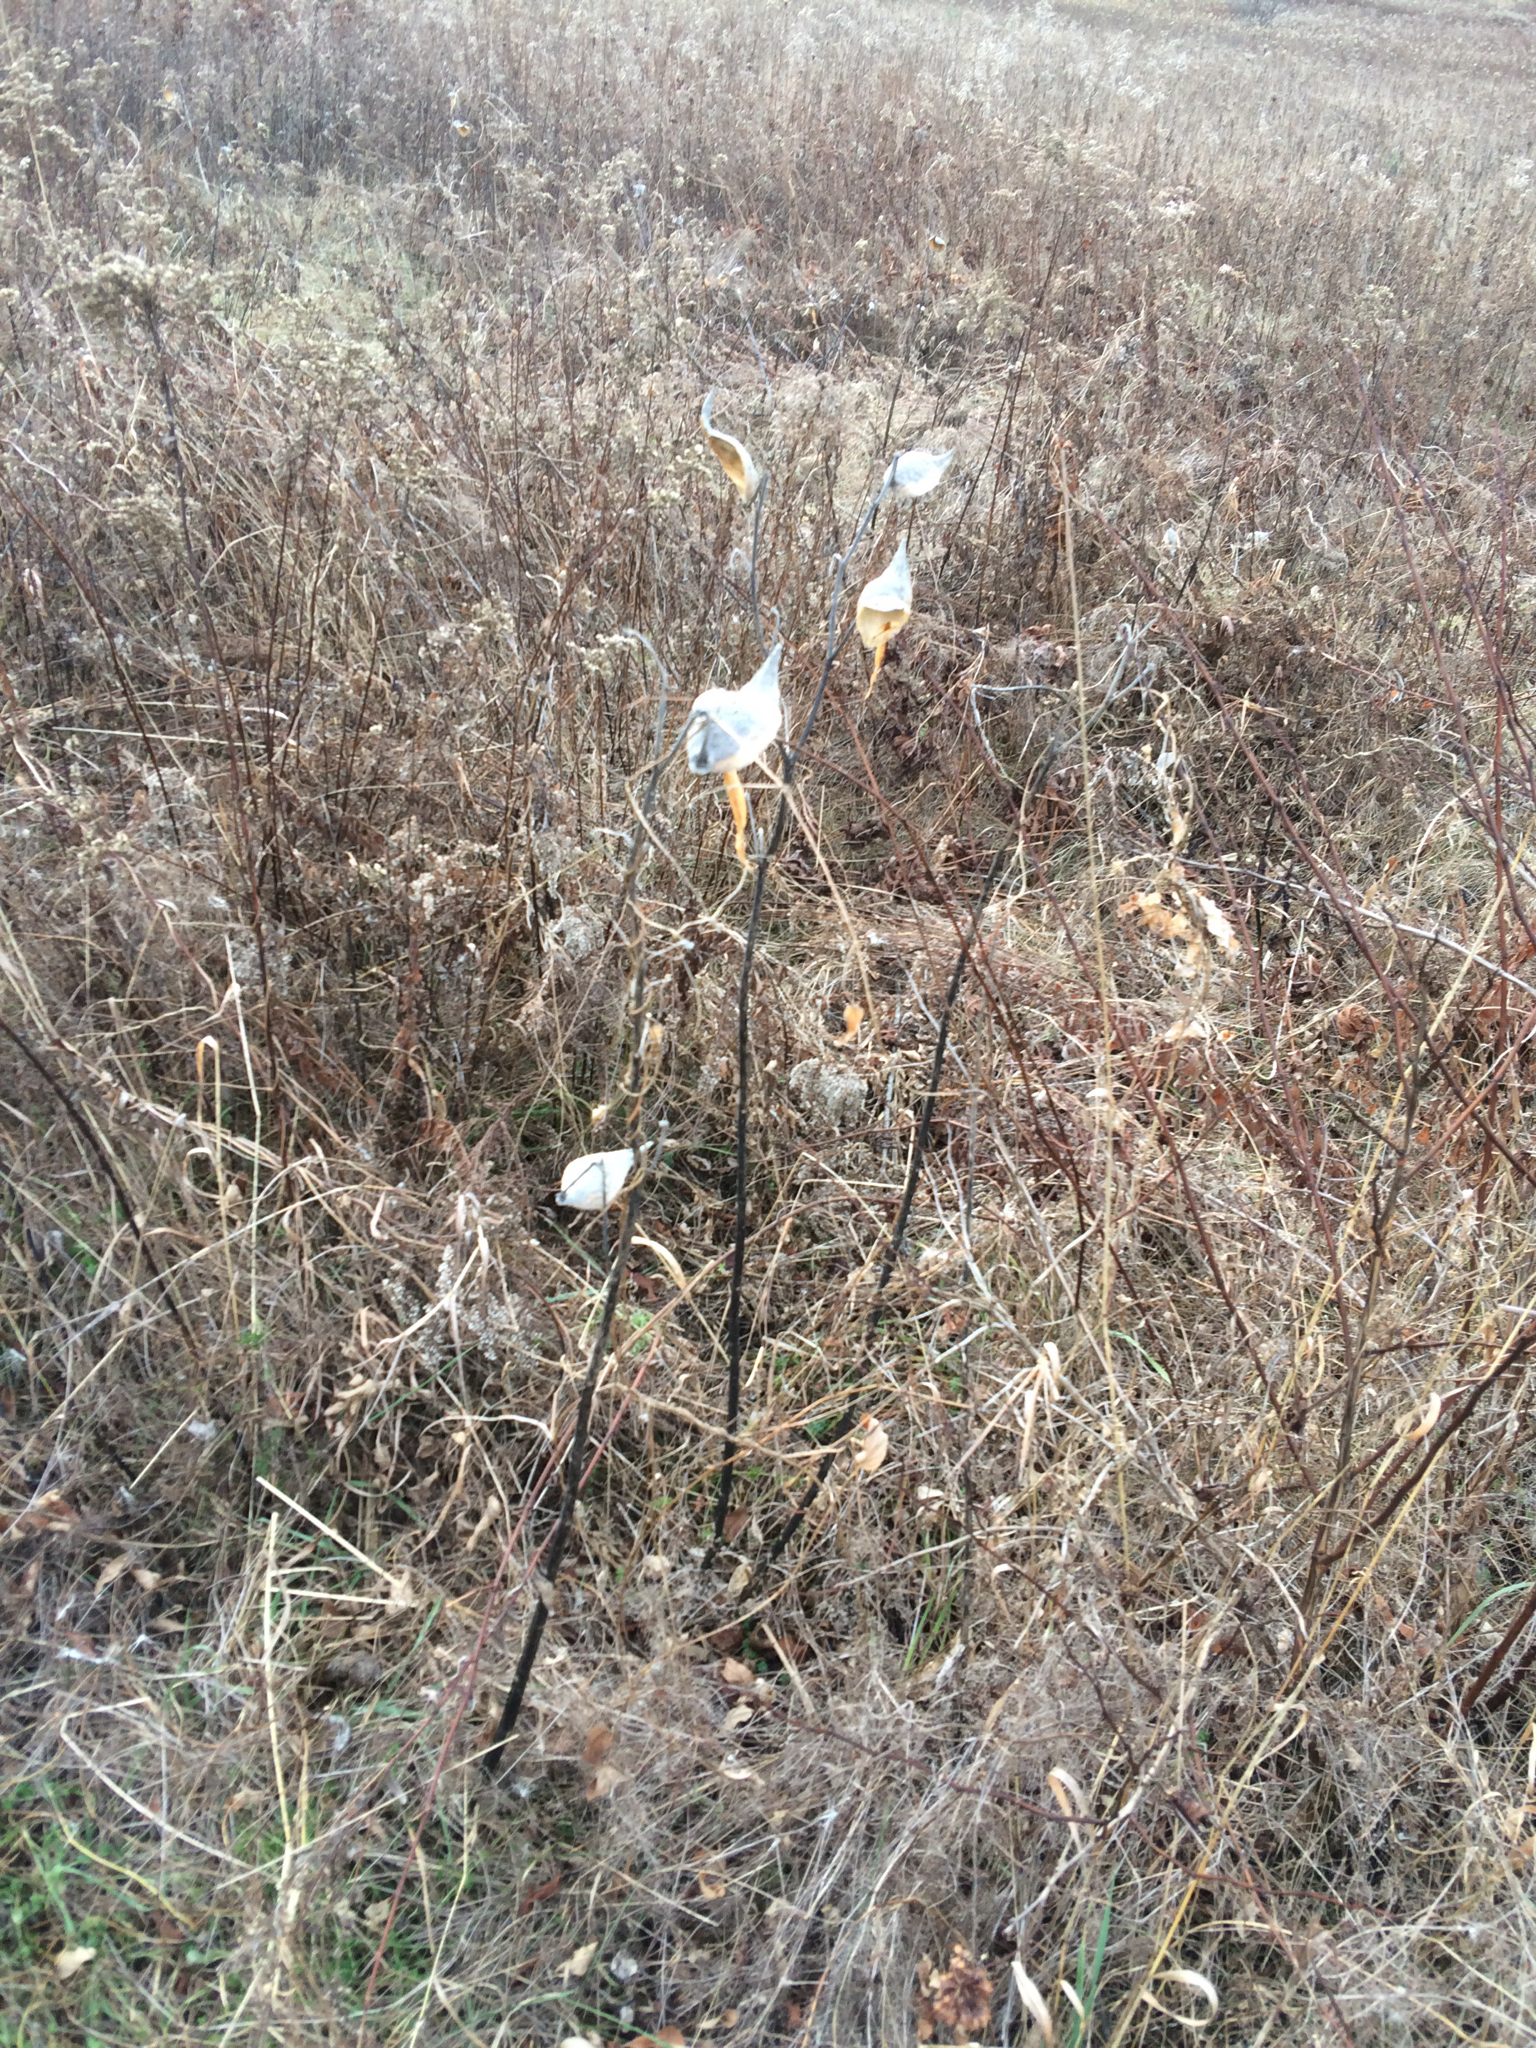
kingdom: Plantae
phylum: Tracheophyta
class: Magnoliopsida
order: Gentianales
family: Apocynaceae
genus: Asclepias
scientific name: Asclepias syriaca
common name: Common milkweed
